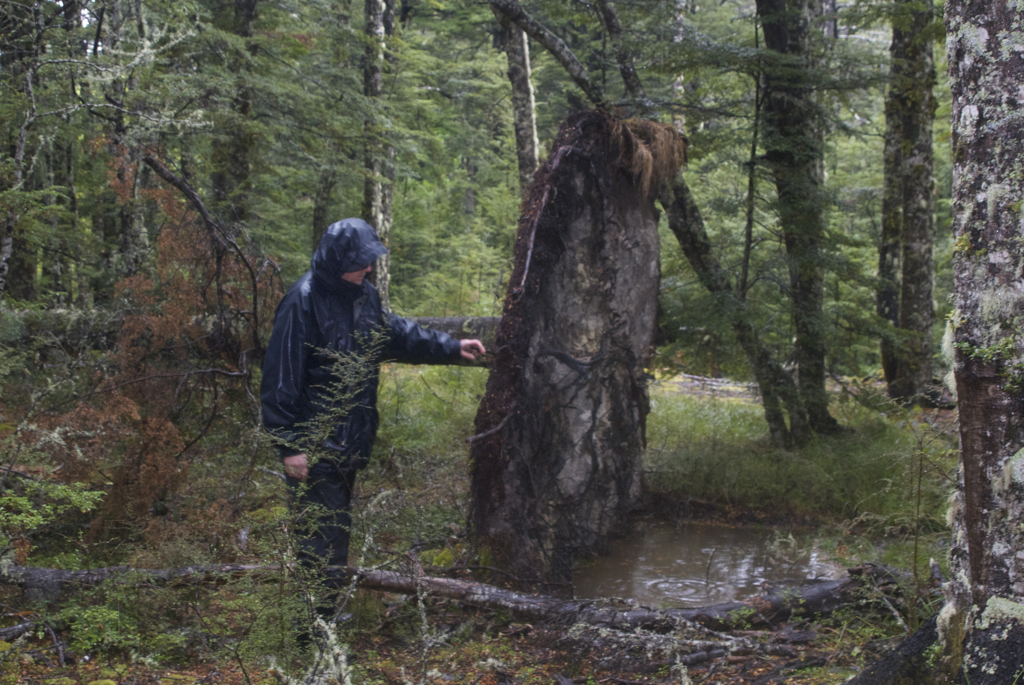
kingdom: Plantae
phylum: Tracheophyta
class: Magnoliopsida
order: Fagales
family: Nothofagaceae
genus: Nothofagus
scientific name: Nothofagus cliffortioides
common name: Mountain beech
